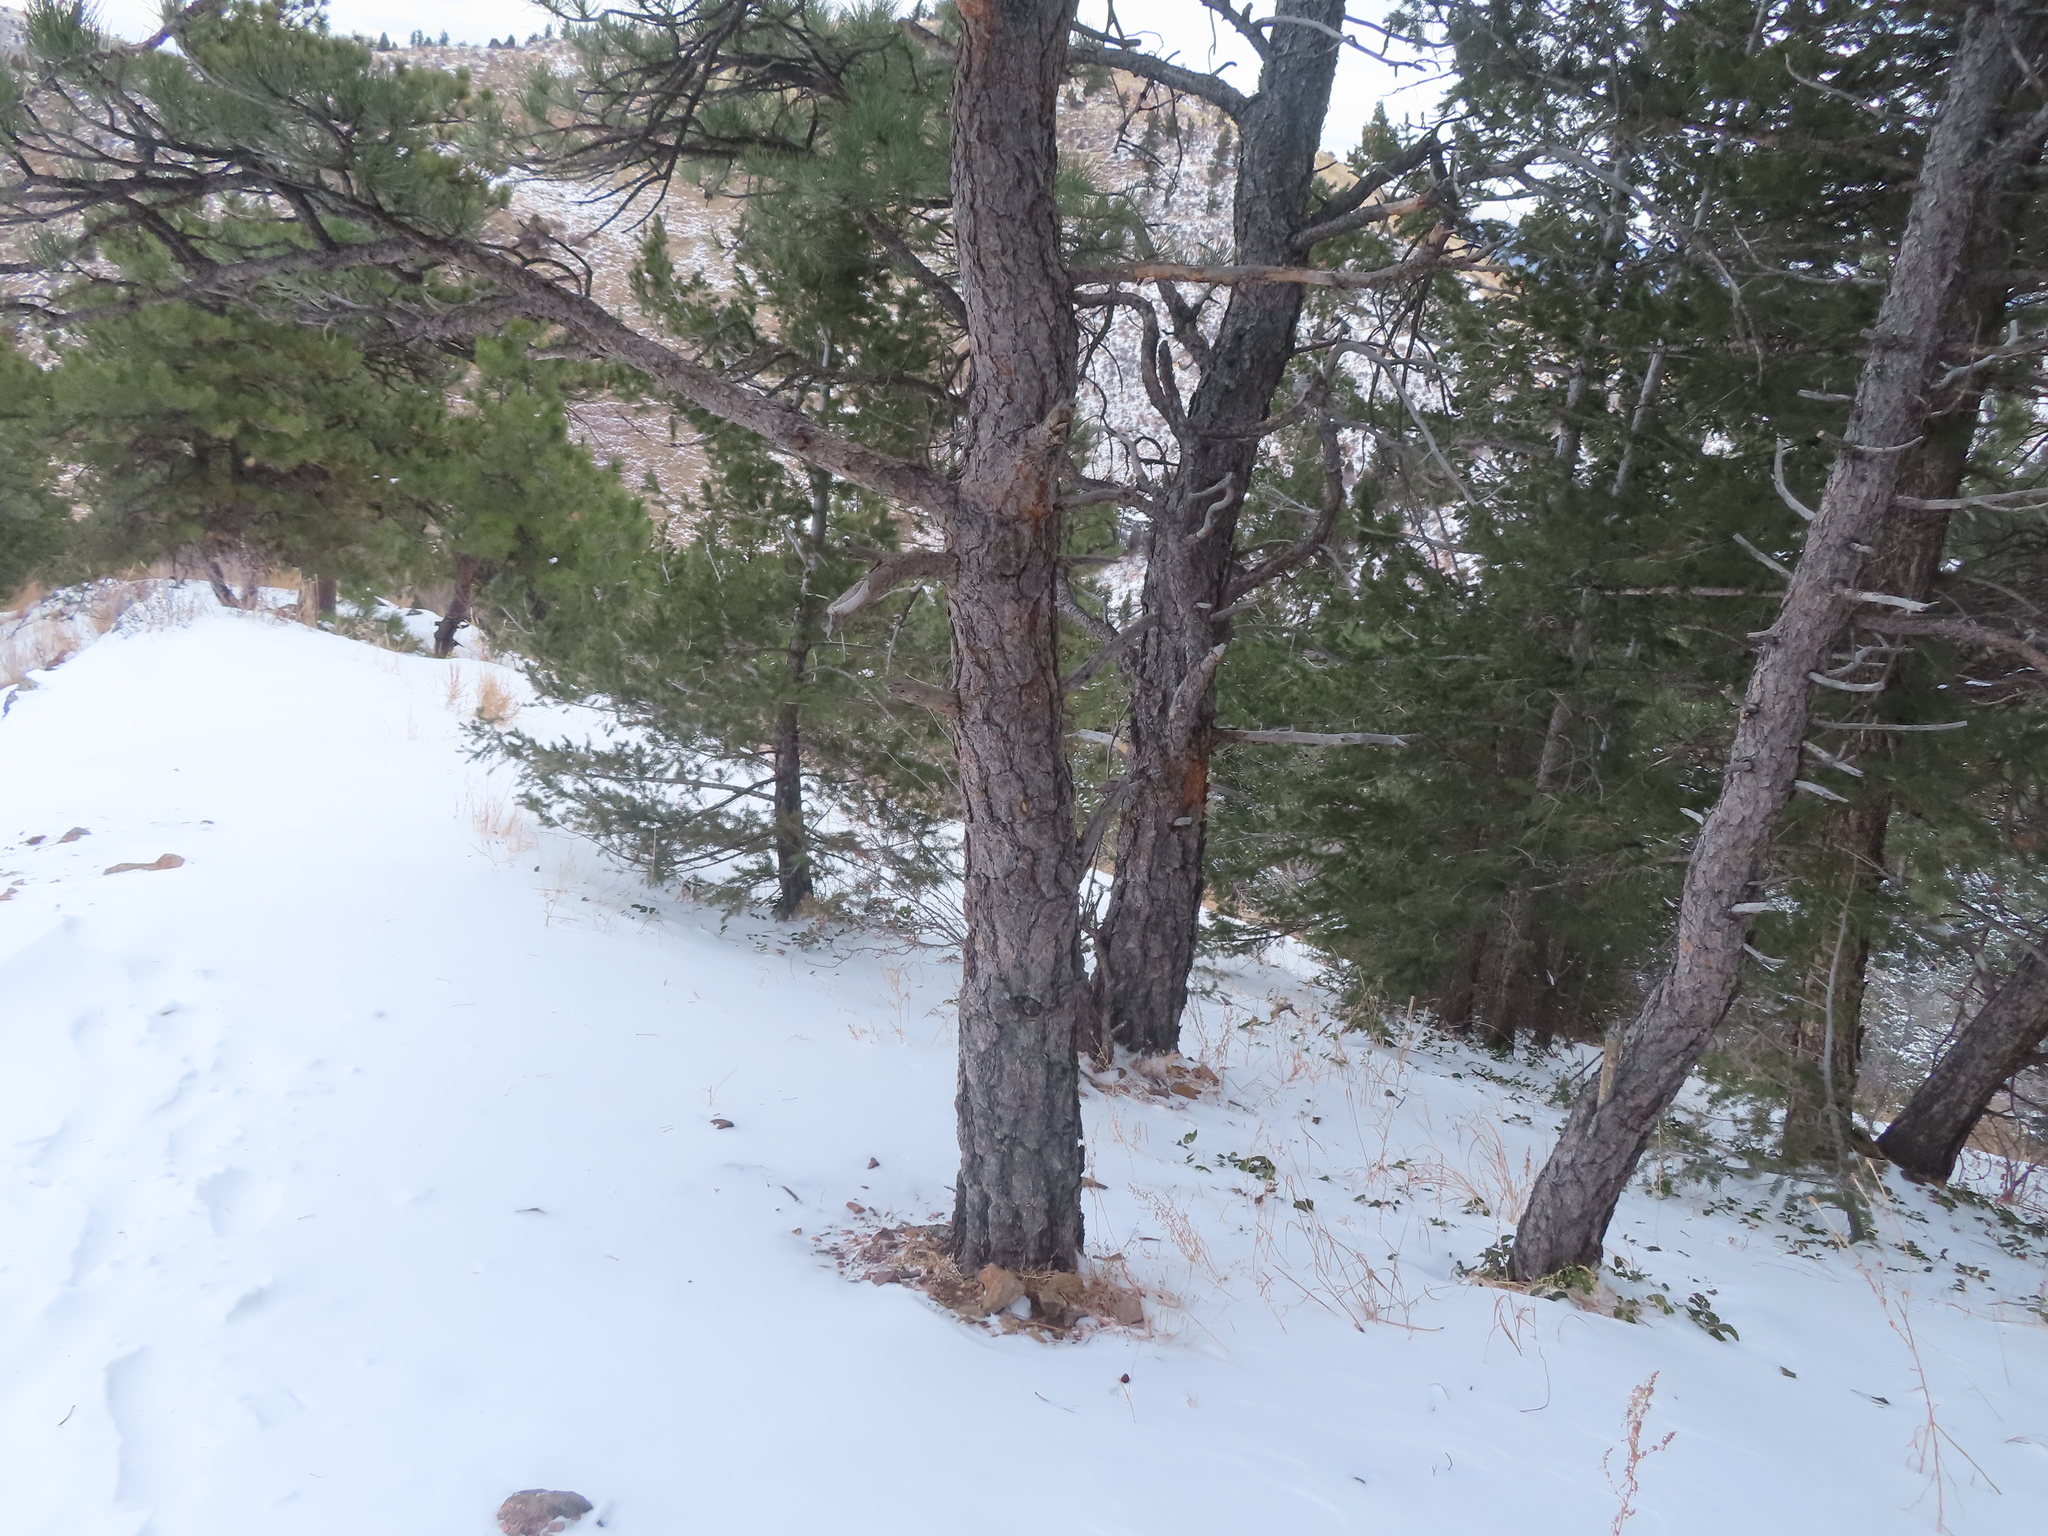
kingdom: Plantae
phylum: Tracheophyta
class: Pinopsida
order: Pinales
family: Pinaceae
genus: Pinus
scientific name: Pinus ponderosa
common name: Western yellow-pine
